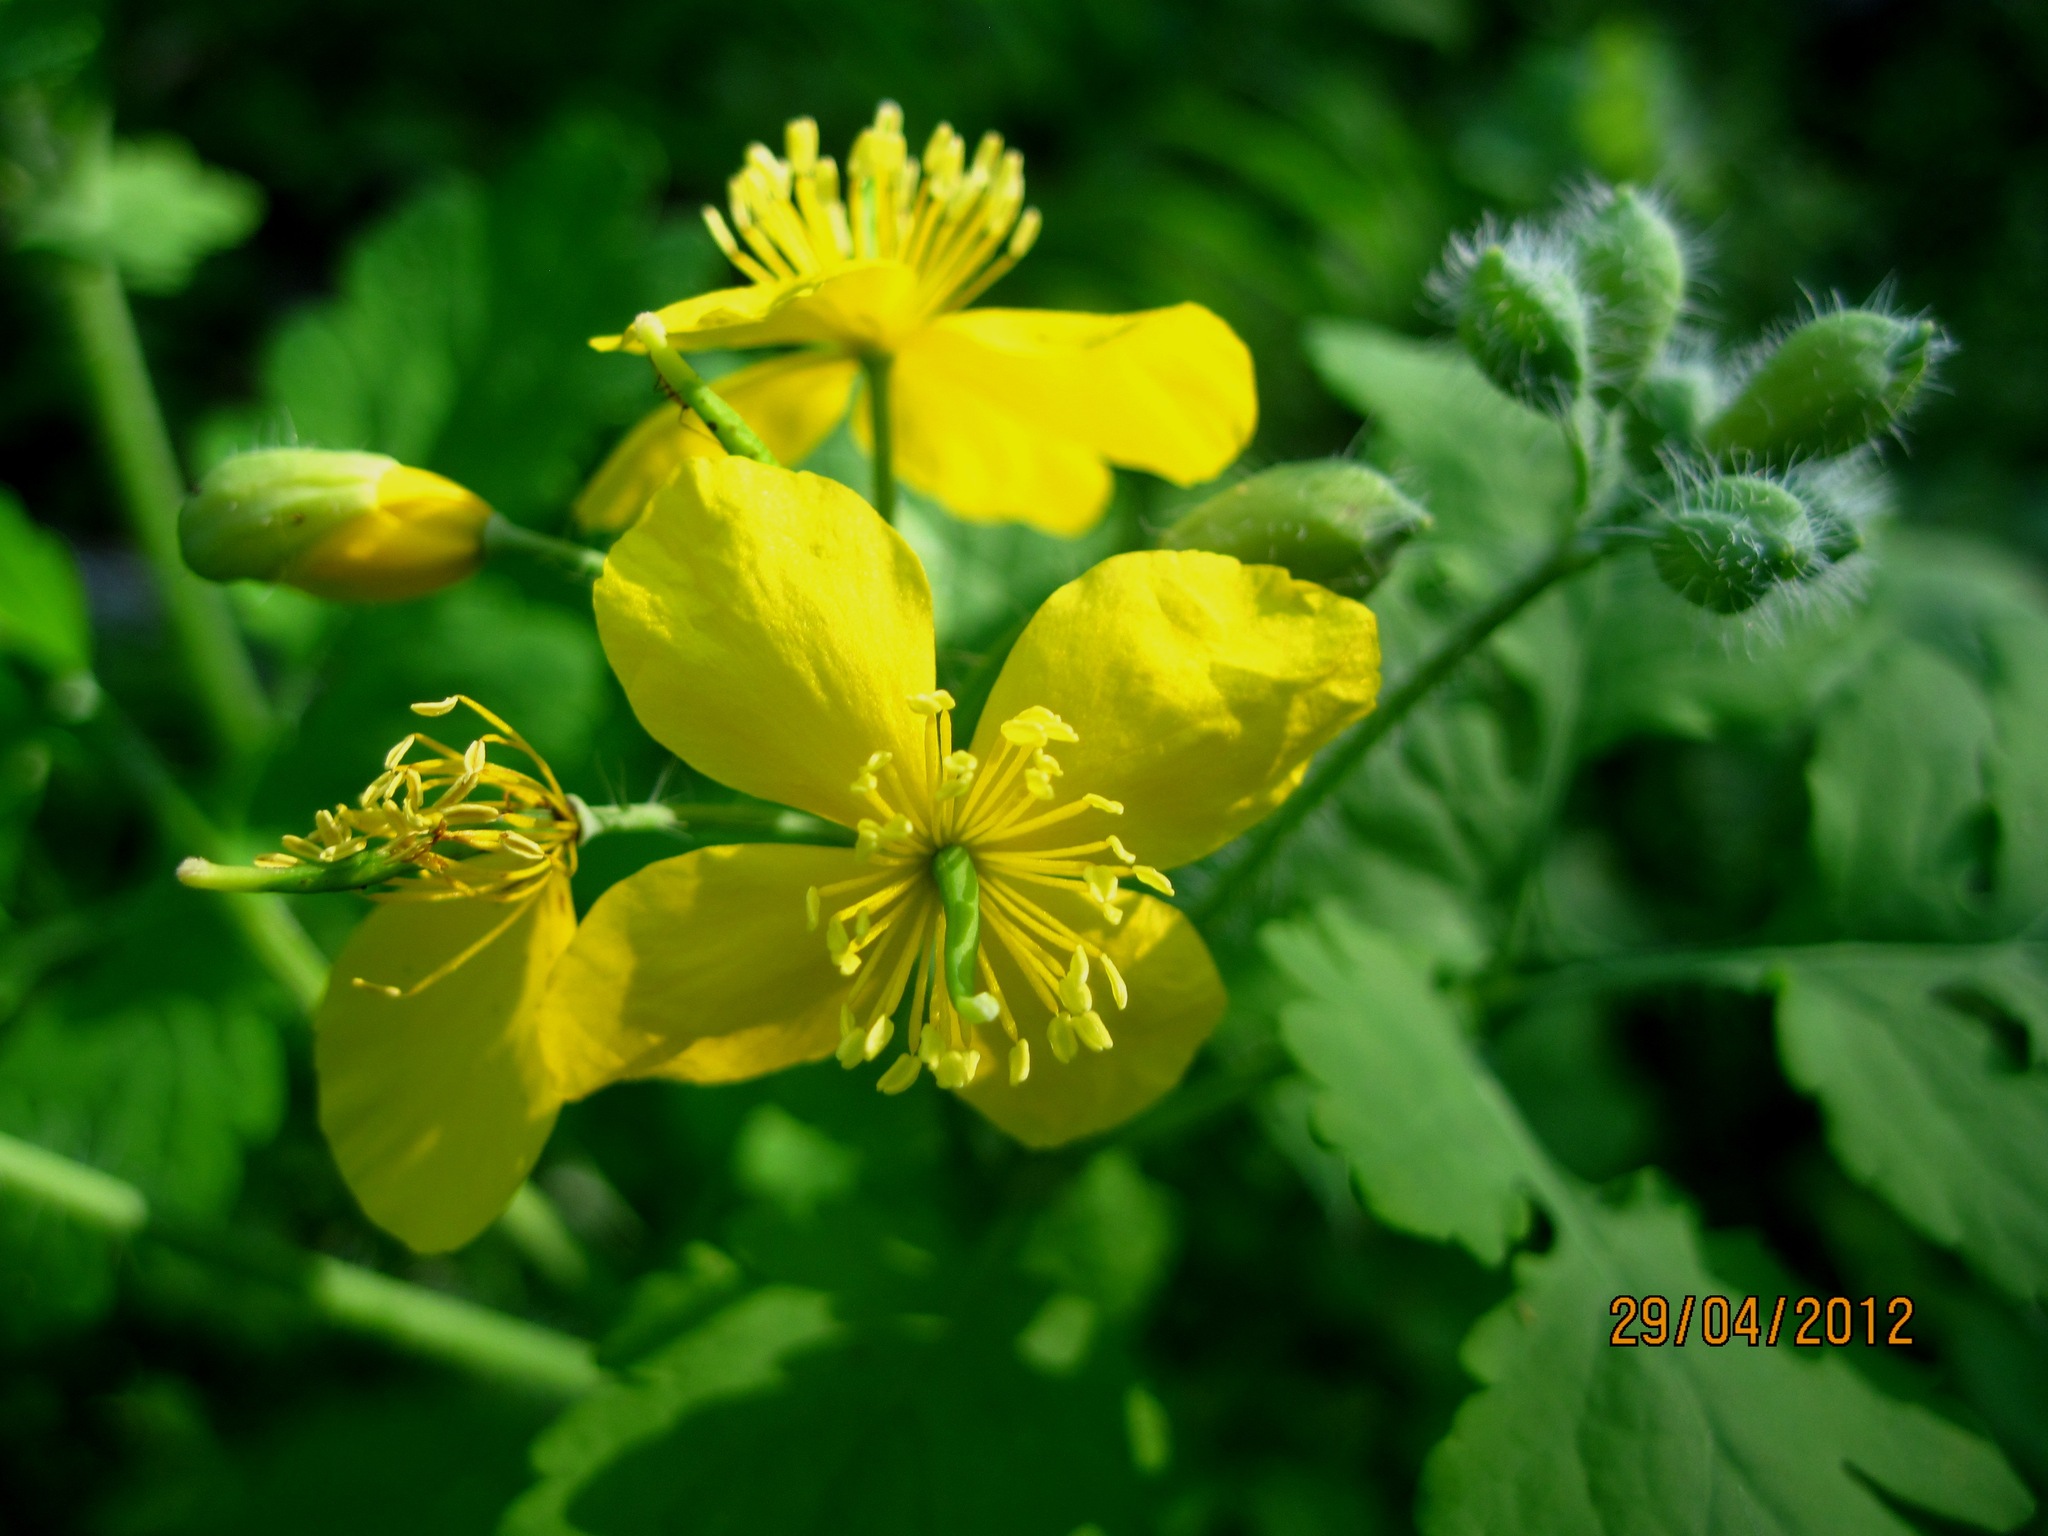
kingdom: Plantae
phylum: Tracheophyta
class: Magnoliopsida
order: Ranunculales
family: Papaveraceae
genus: Chelidonium
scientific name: Chelidonium majus
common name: Greater celandine
